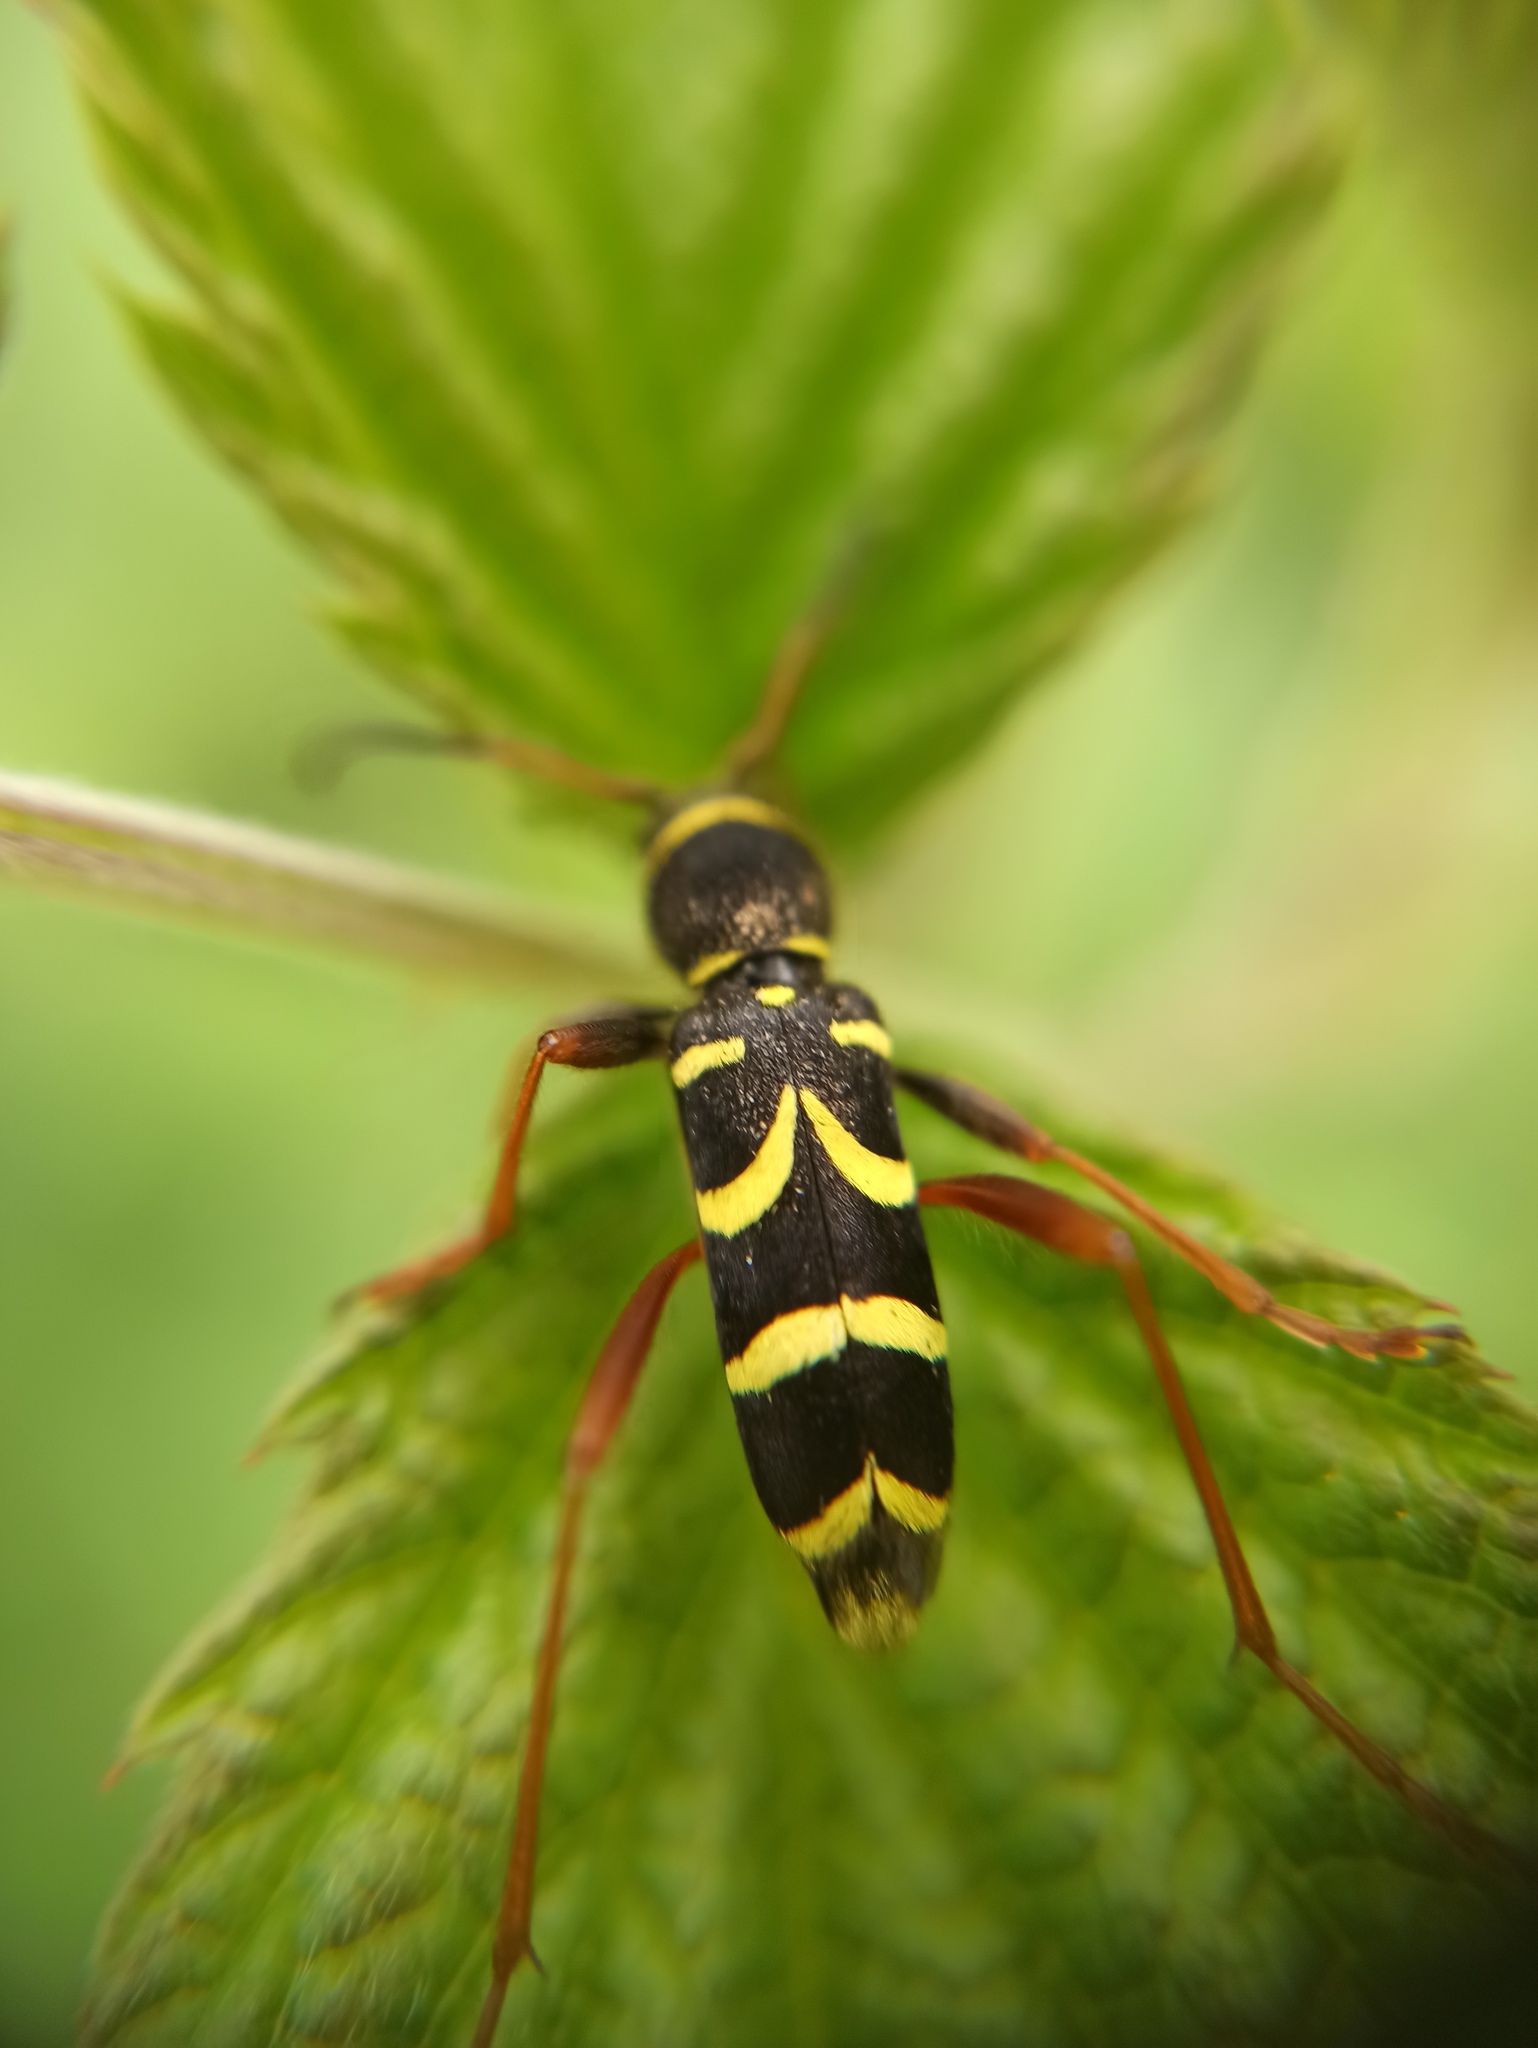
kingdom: Animalia
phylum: Arthropoda
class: Insecta
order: Coleoptera
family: Cerambycidae
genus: Clytus
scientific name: Clytus arietis
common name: Wasp beetle
